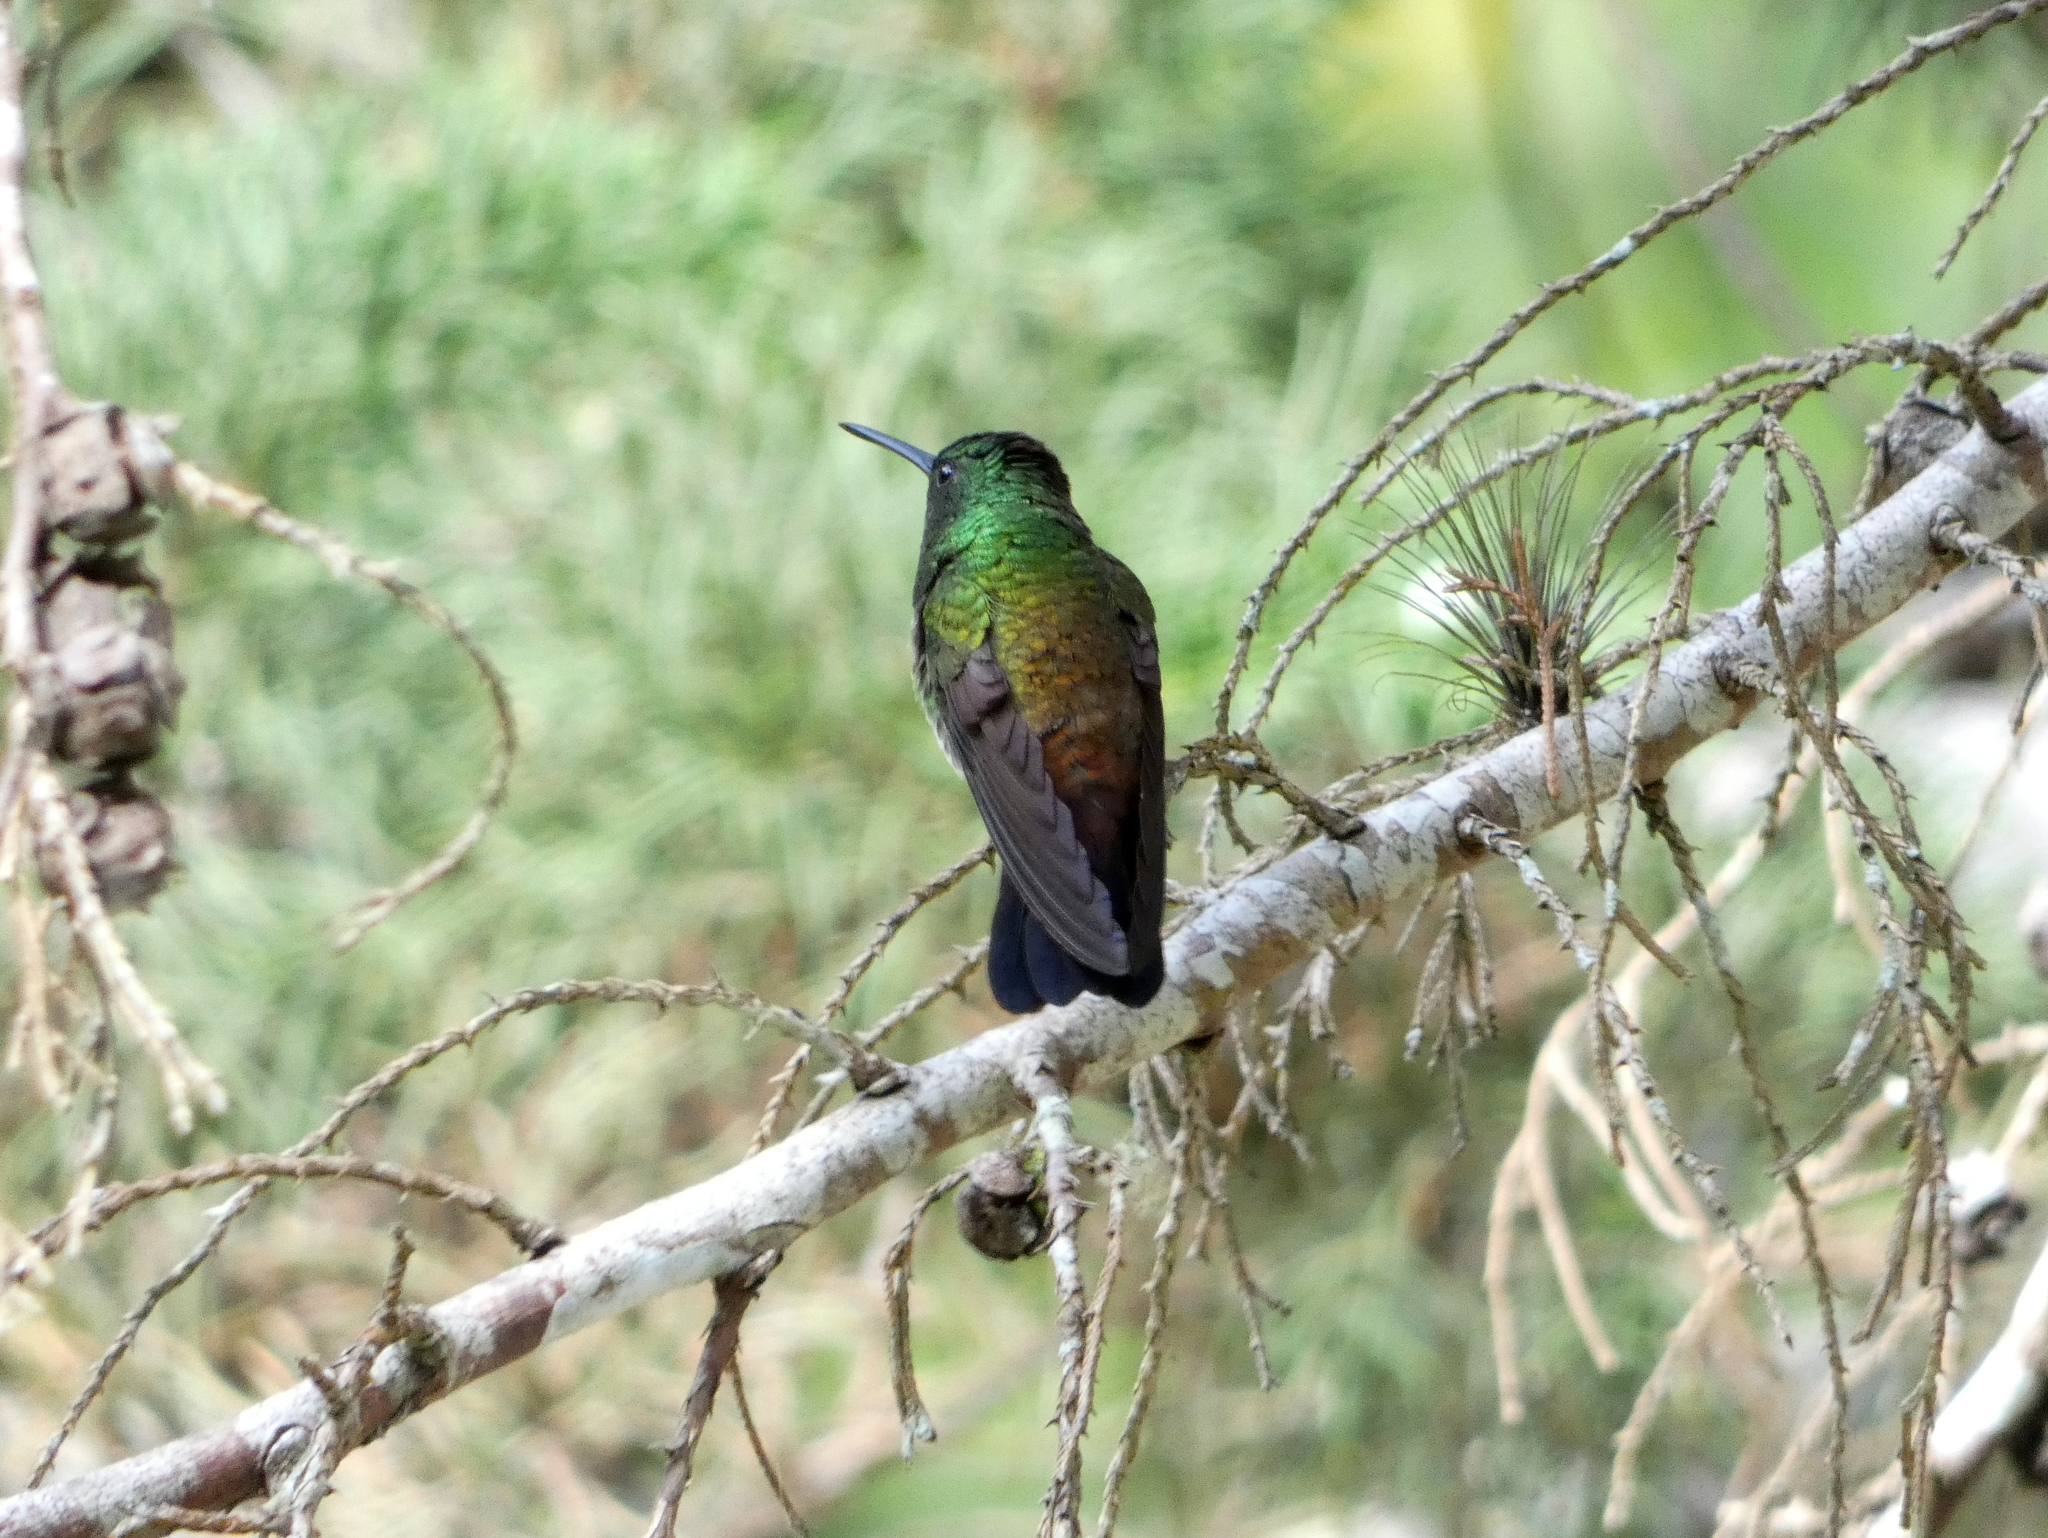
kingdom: Animalia
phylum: Chordata
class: Aves
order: Apodiformes
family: Trochilidae
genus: Amazilia
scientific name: Amazilia tzacatl
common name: Rufous-tailed hummingbird
